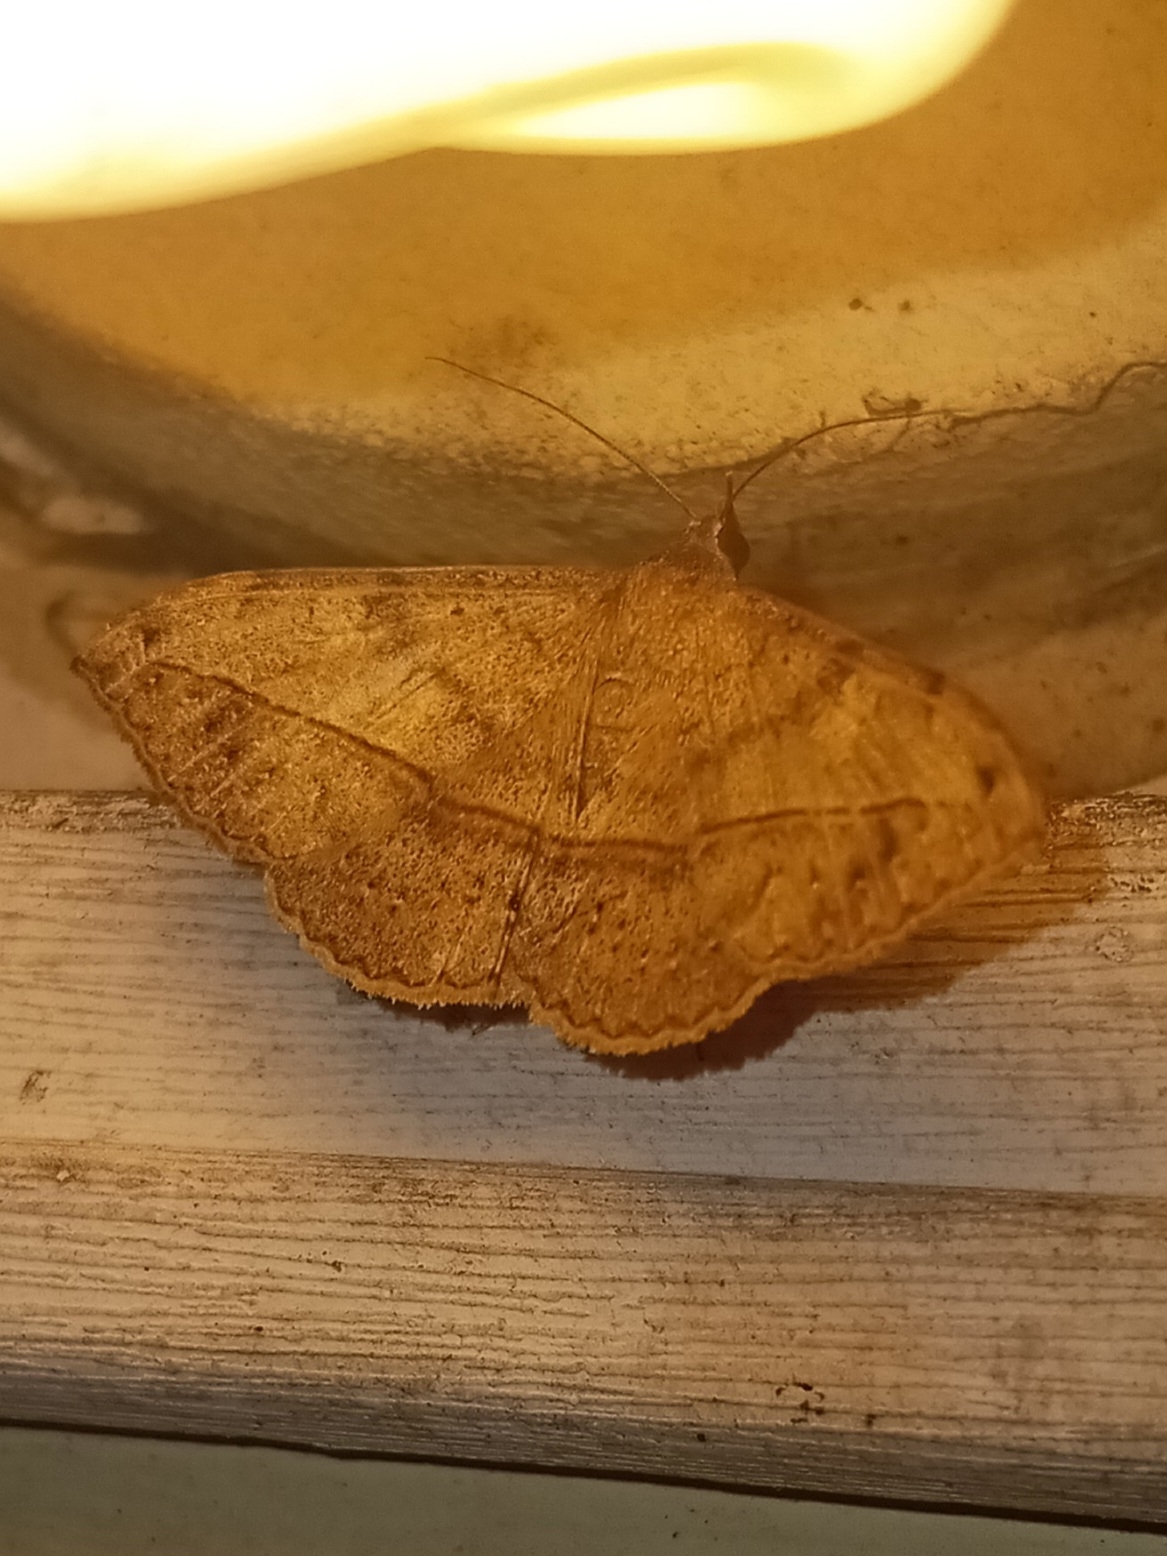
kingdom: Animalia
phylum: Arthropoda
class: Insecta
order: Lepidoptera
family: Erebidae
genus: Anticarsia
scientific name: Anticarsia gemmatalis
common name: Cutworm moth
